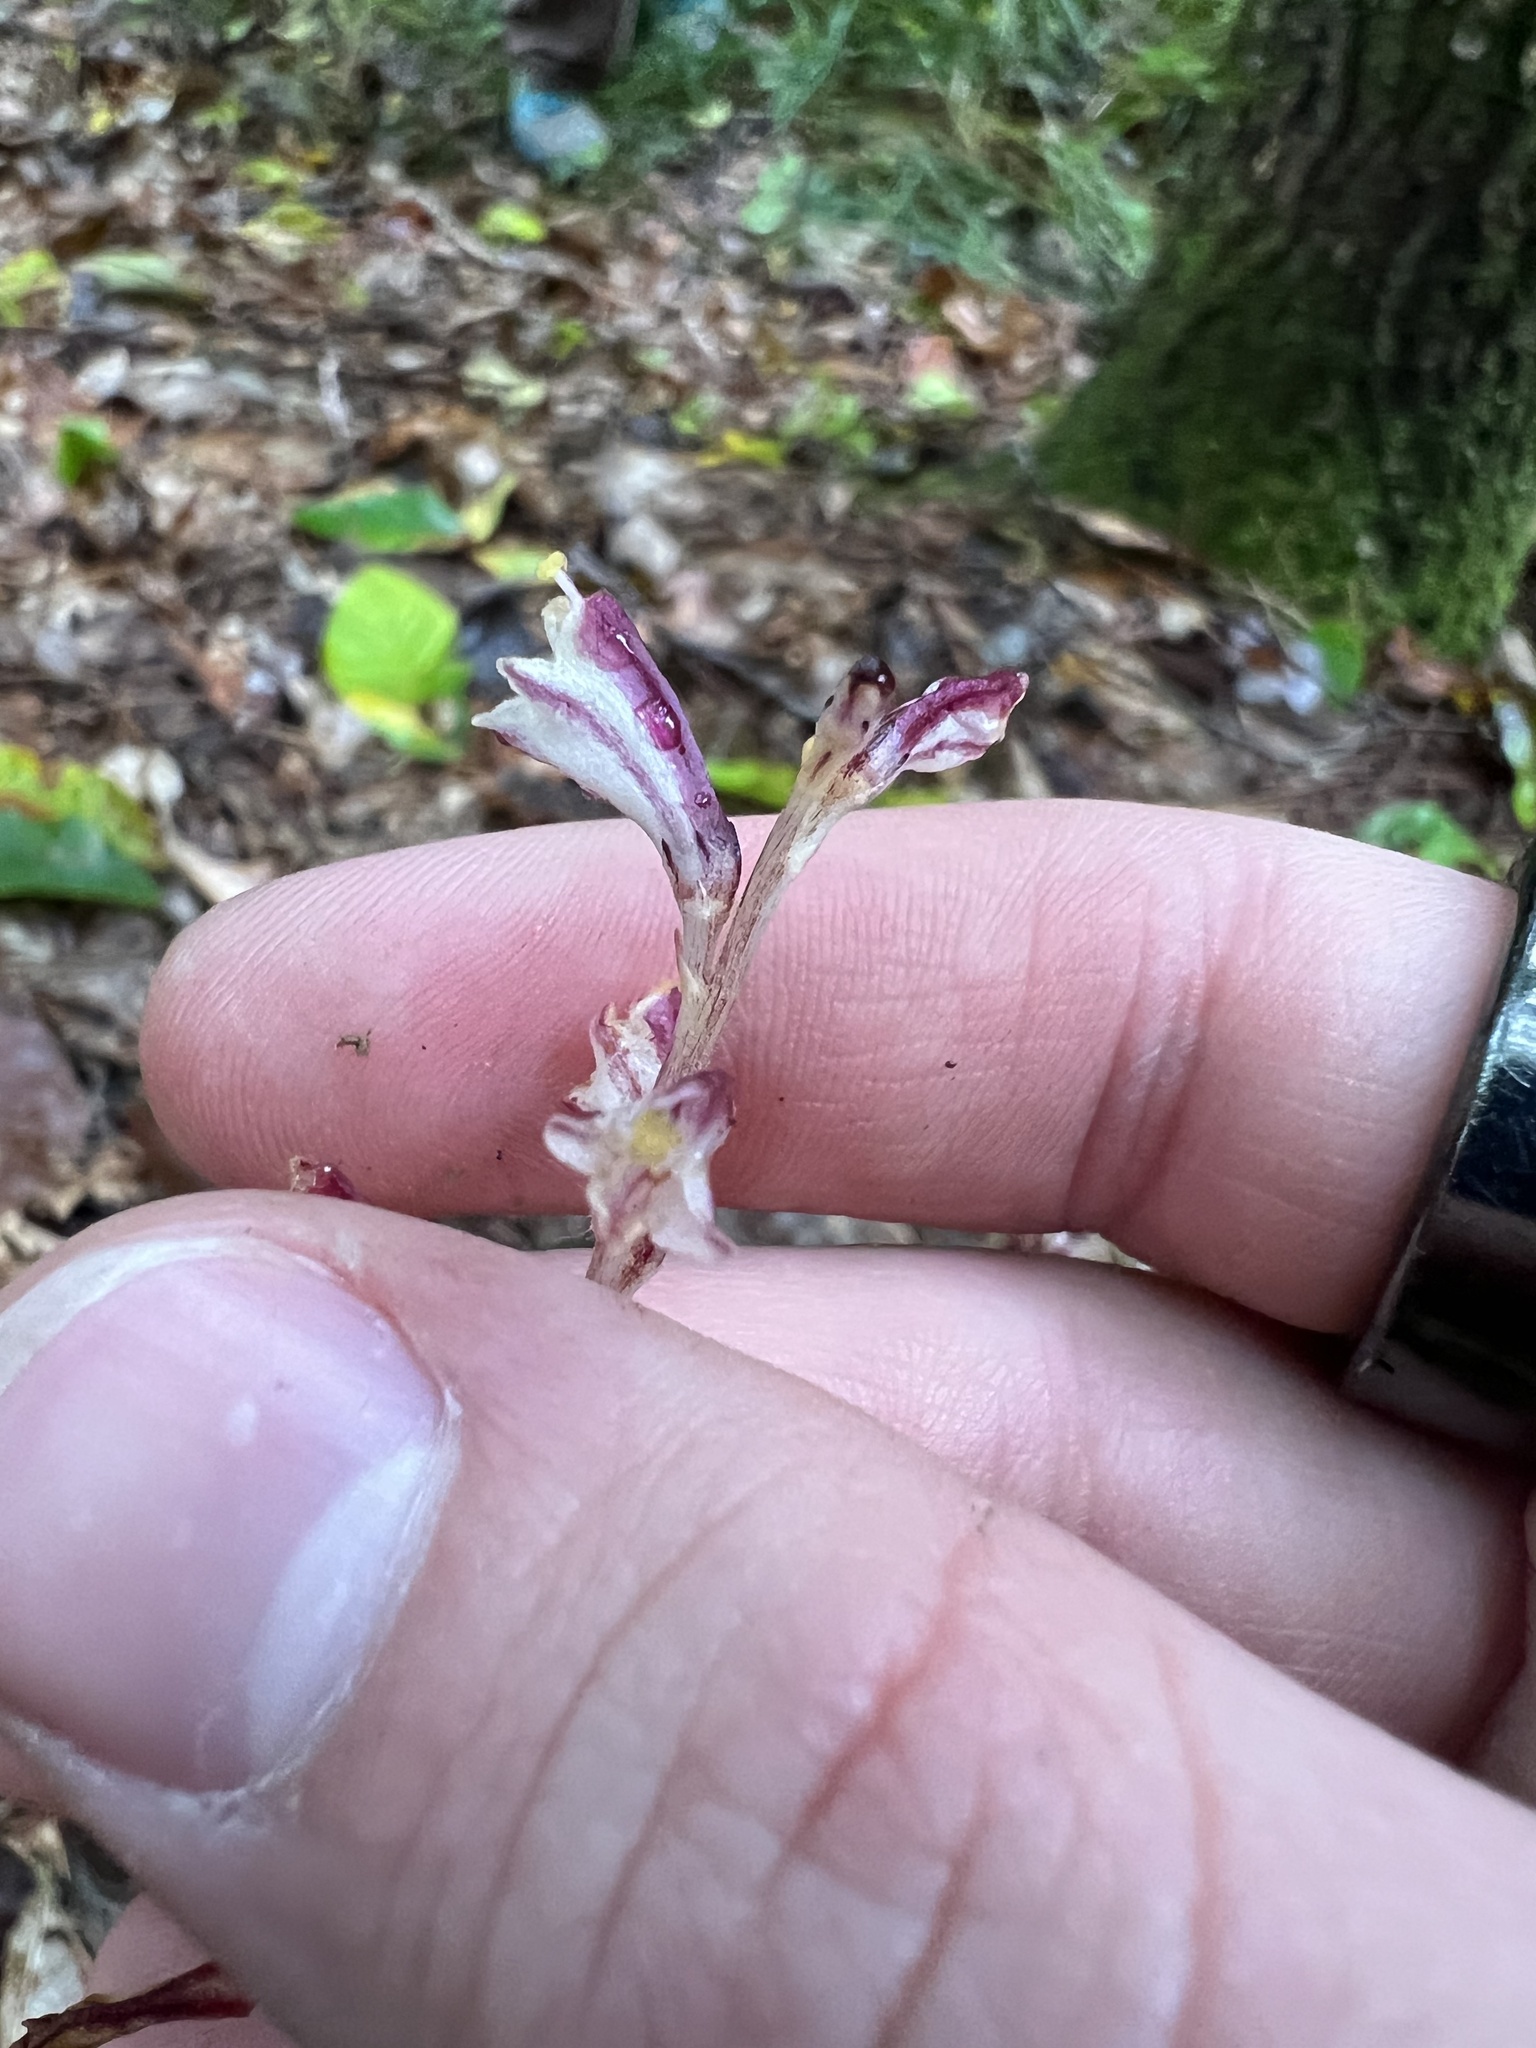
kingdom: Plantae
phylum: Tracheophyta
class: Magnoliopsida
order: Lamiales
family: Orobanchaceae
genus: Epifagus
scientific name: Epifagus virginiana
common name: Beechdrops
